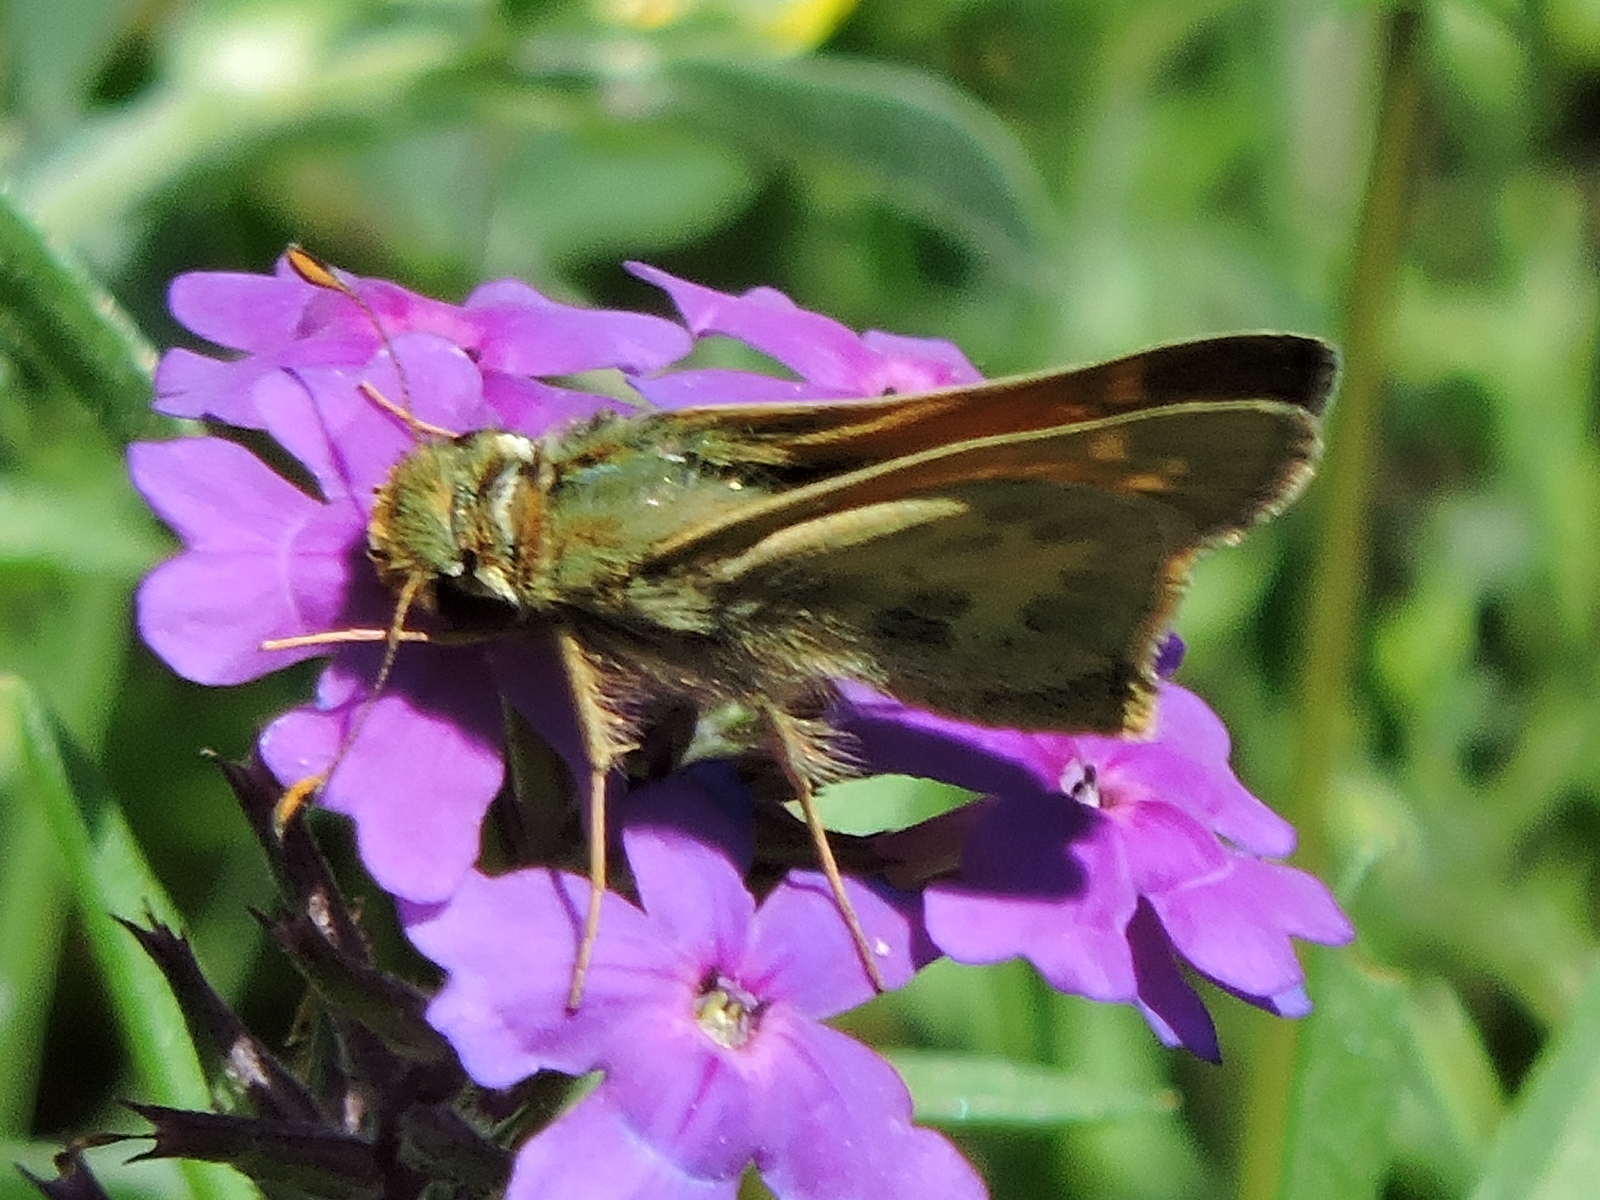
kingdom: Animalia
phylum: Arthropoda
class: Insecta
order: Lepidoptera
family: Hesperiidae
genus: Atalopedes
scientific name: Atalopedes
